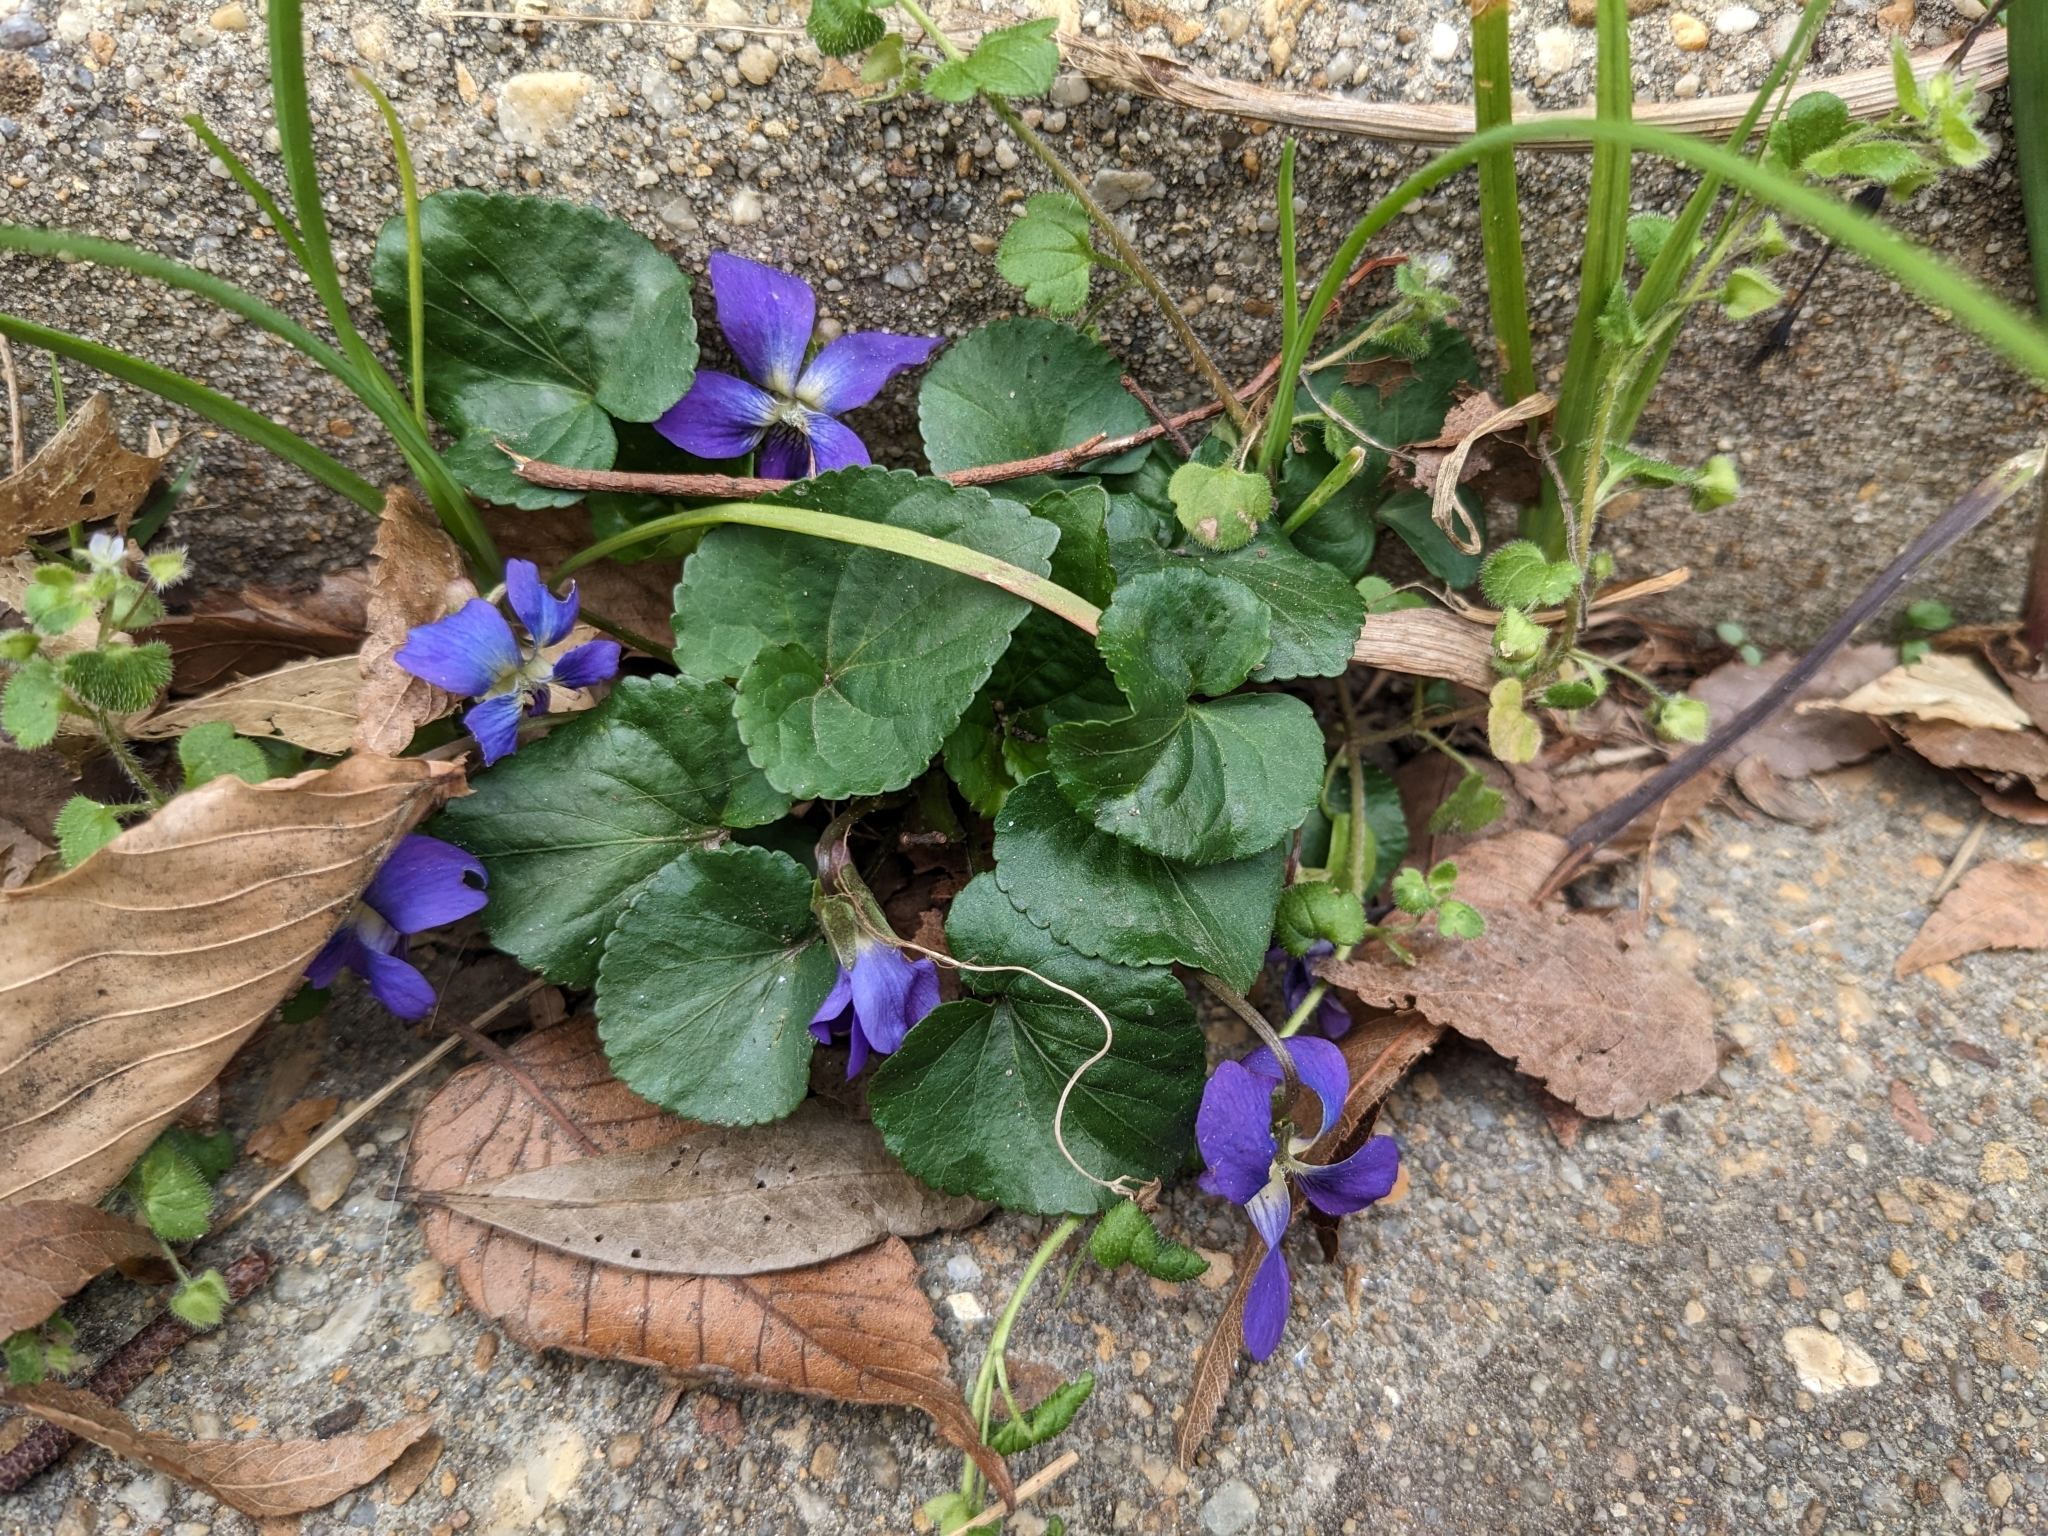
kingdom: Plantae
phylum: Tracheophyta
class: Magnoliopsida
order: Malpighiales
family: Violaceae
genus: Viola
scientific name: Viola sororia
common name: Dooryard violet
